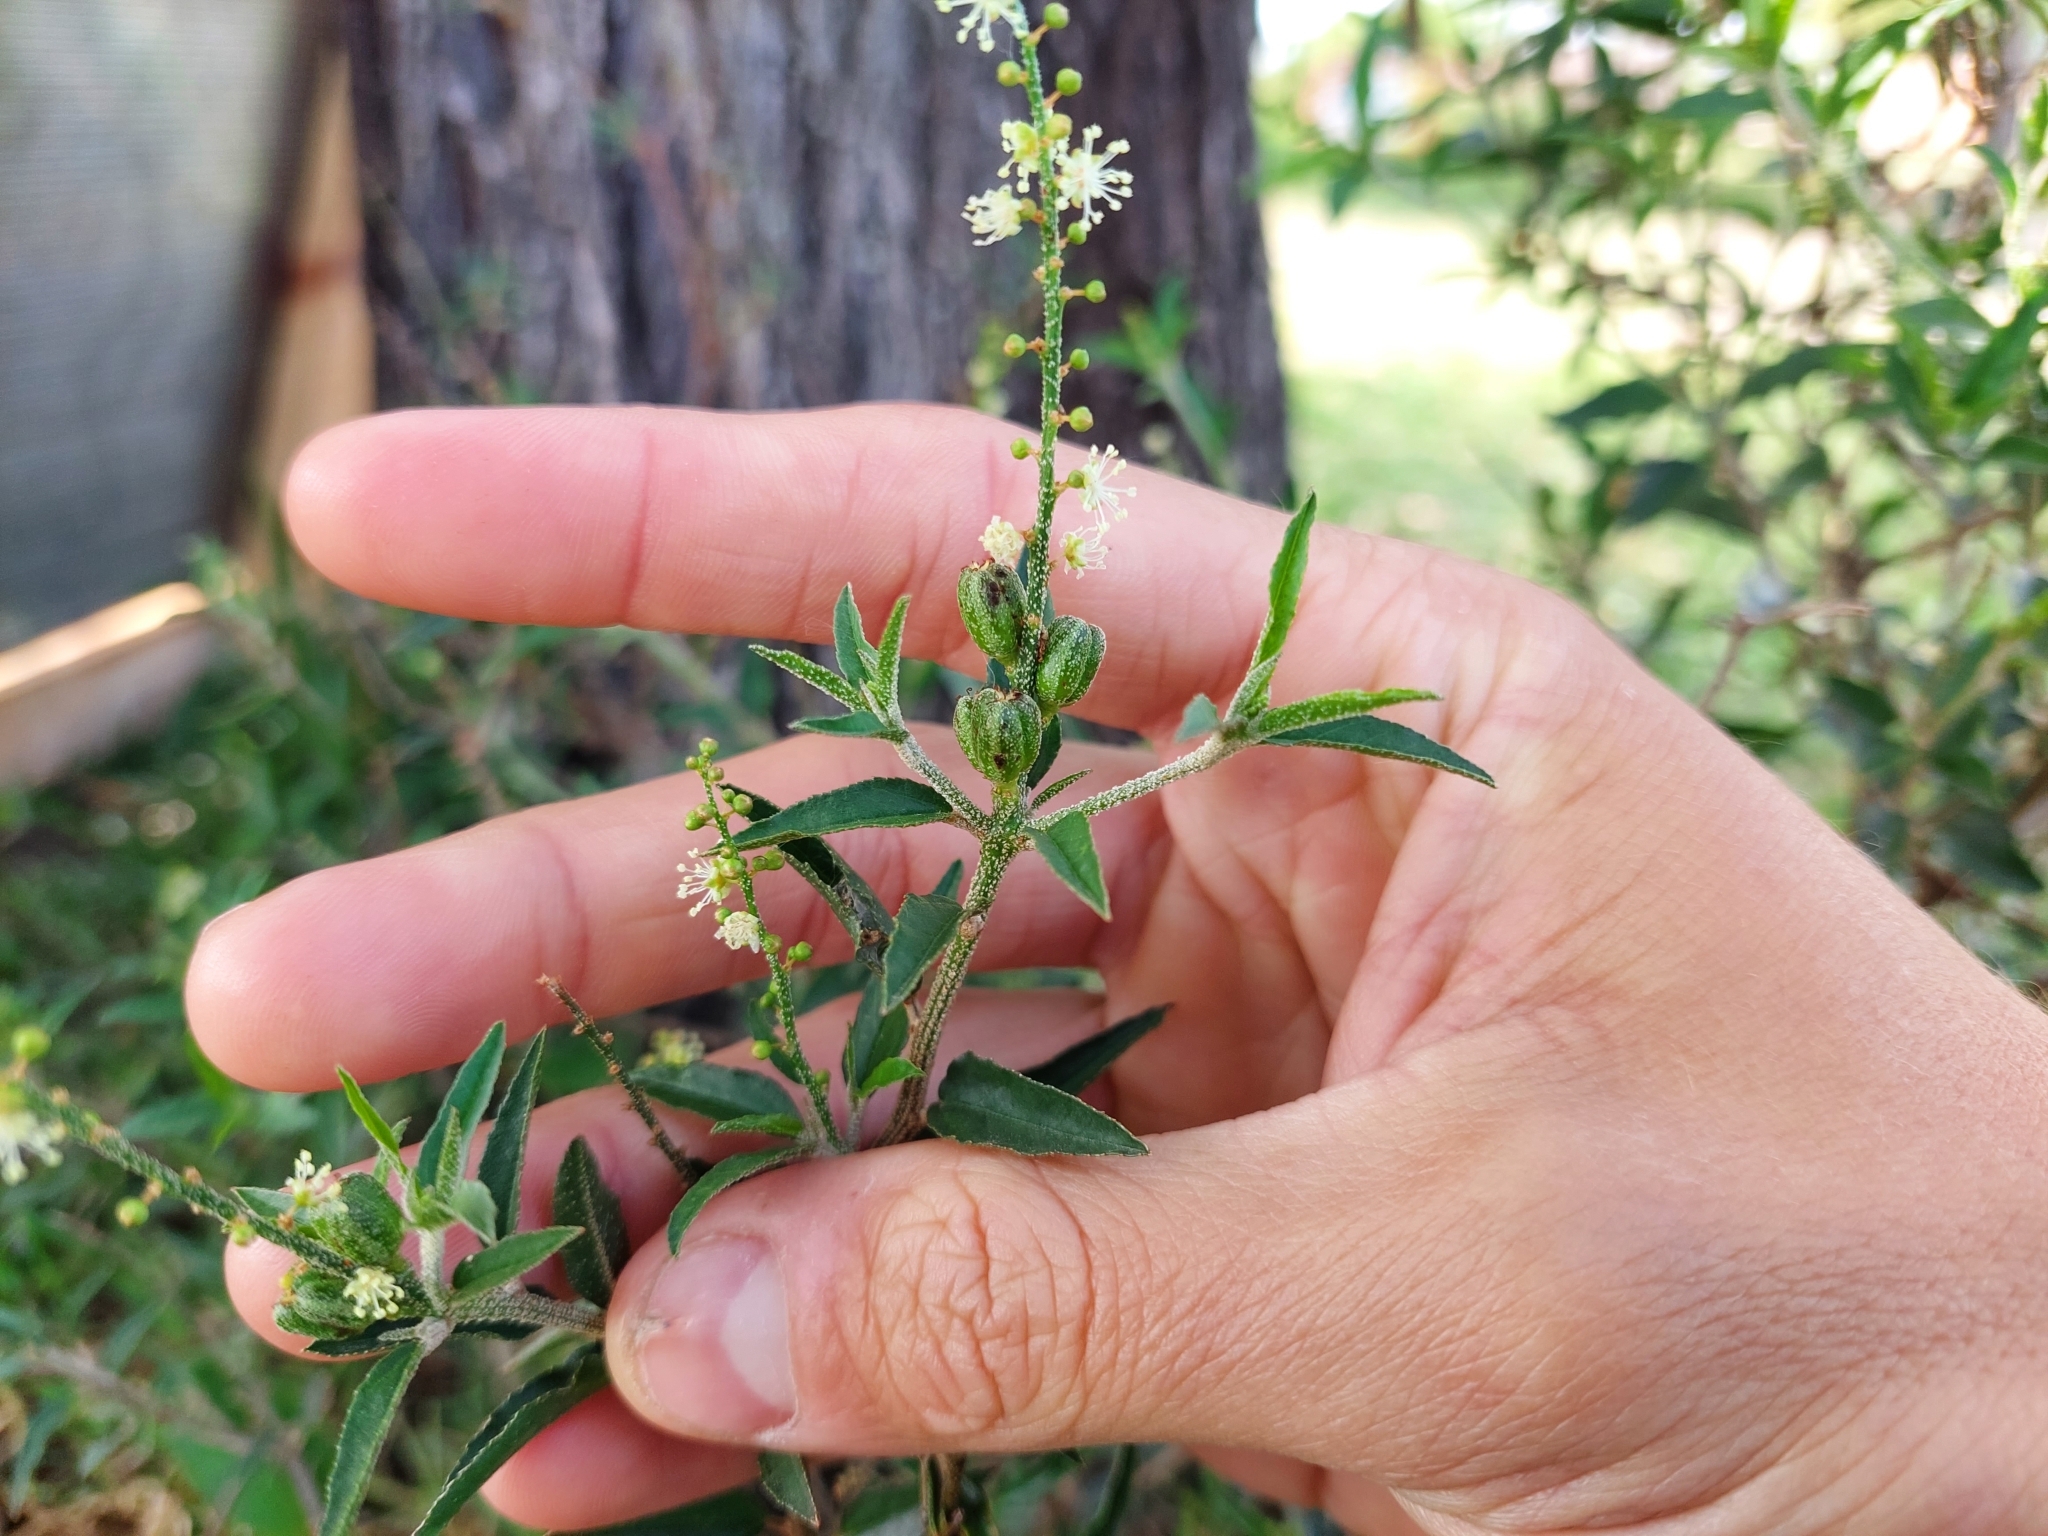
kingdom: Plantae
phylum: Tracheophyta
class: Magnoliopsida
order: Malpighiales
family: Euphorbiaceae
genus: Croton
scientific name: Croton bonplandianus
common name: Bonpland's croton
